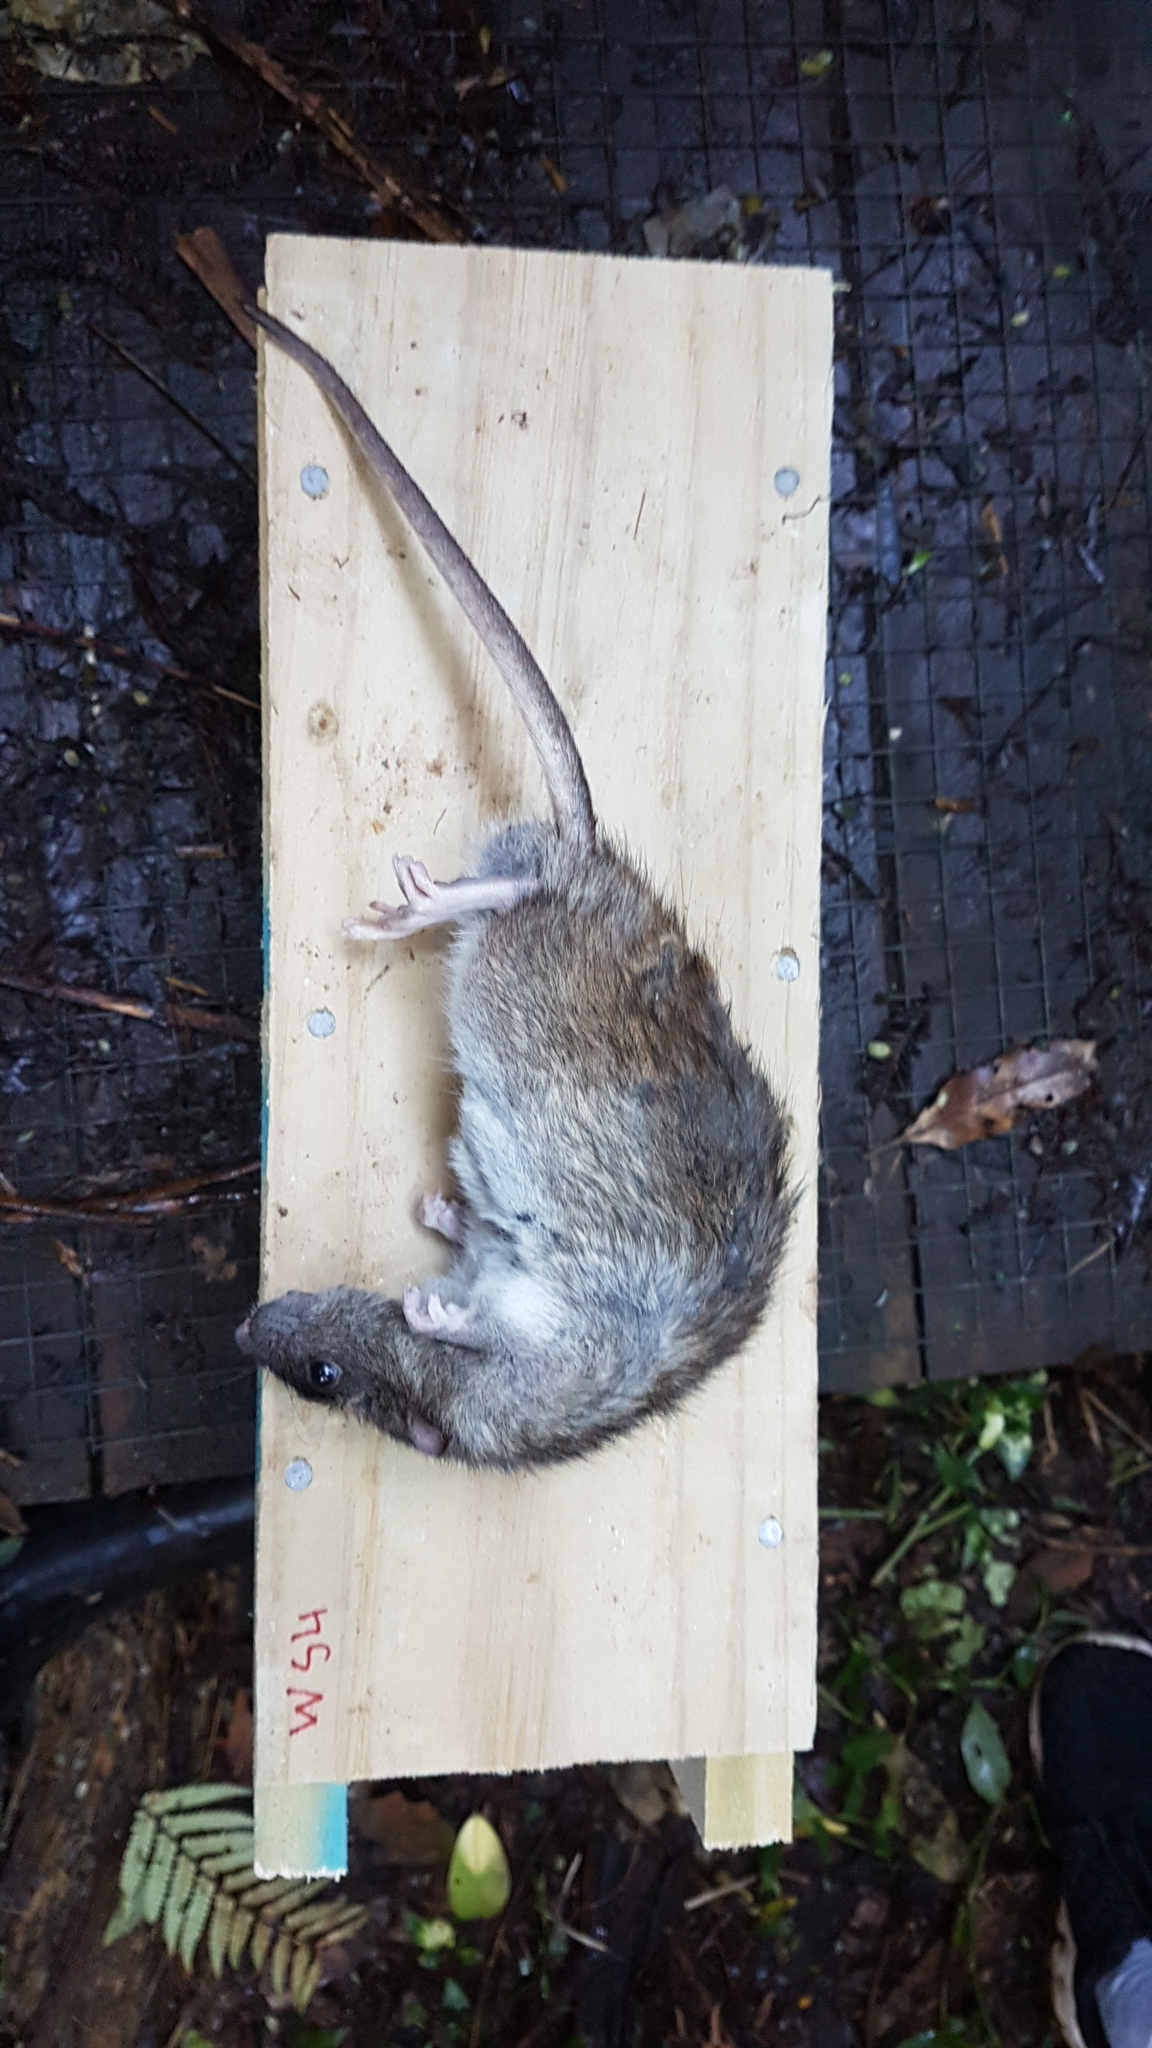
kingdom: Animalia
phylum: Chordata
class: Mammalia
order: Rodentia
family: Muridae
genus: Rattus
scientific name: Rattus norvegicus
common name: Brown rat
